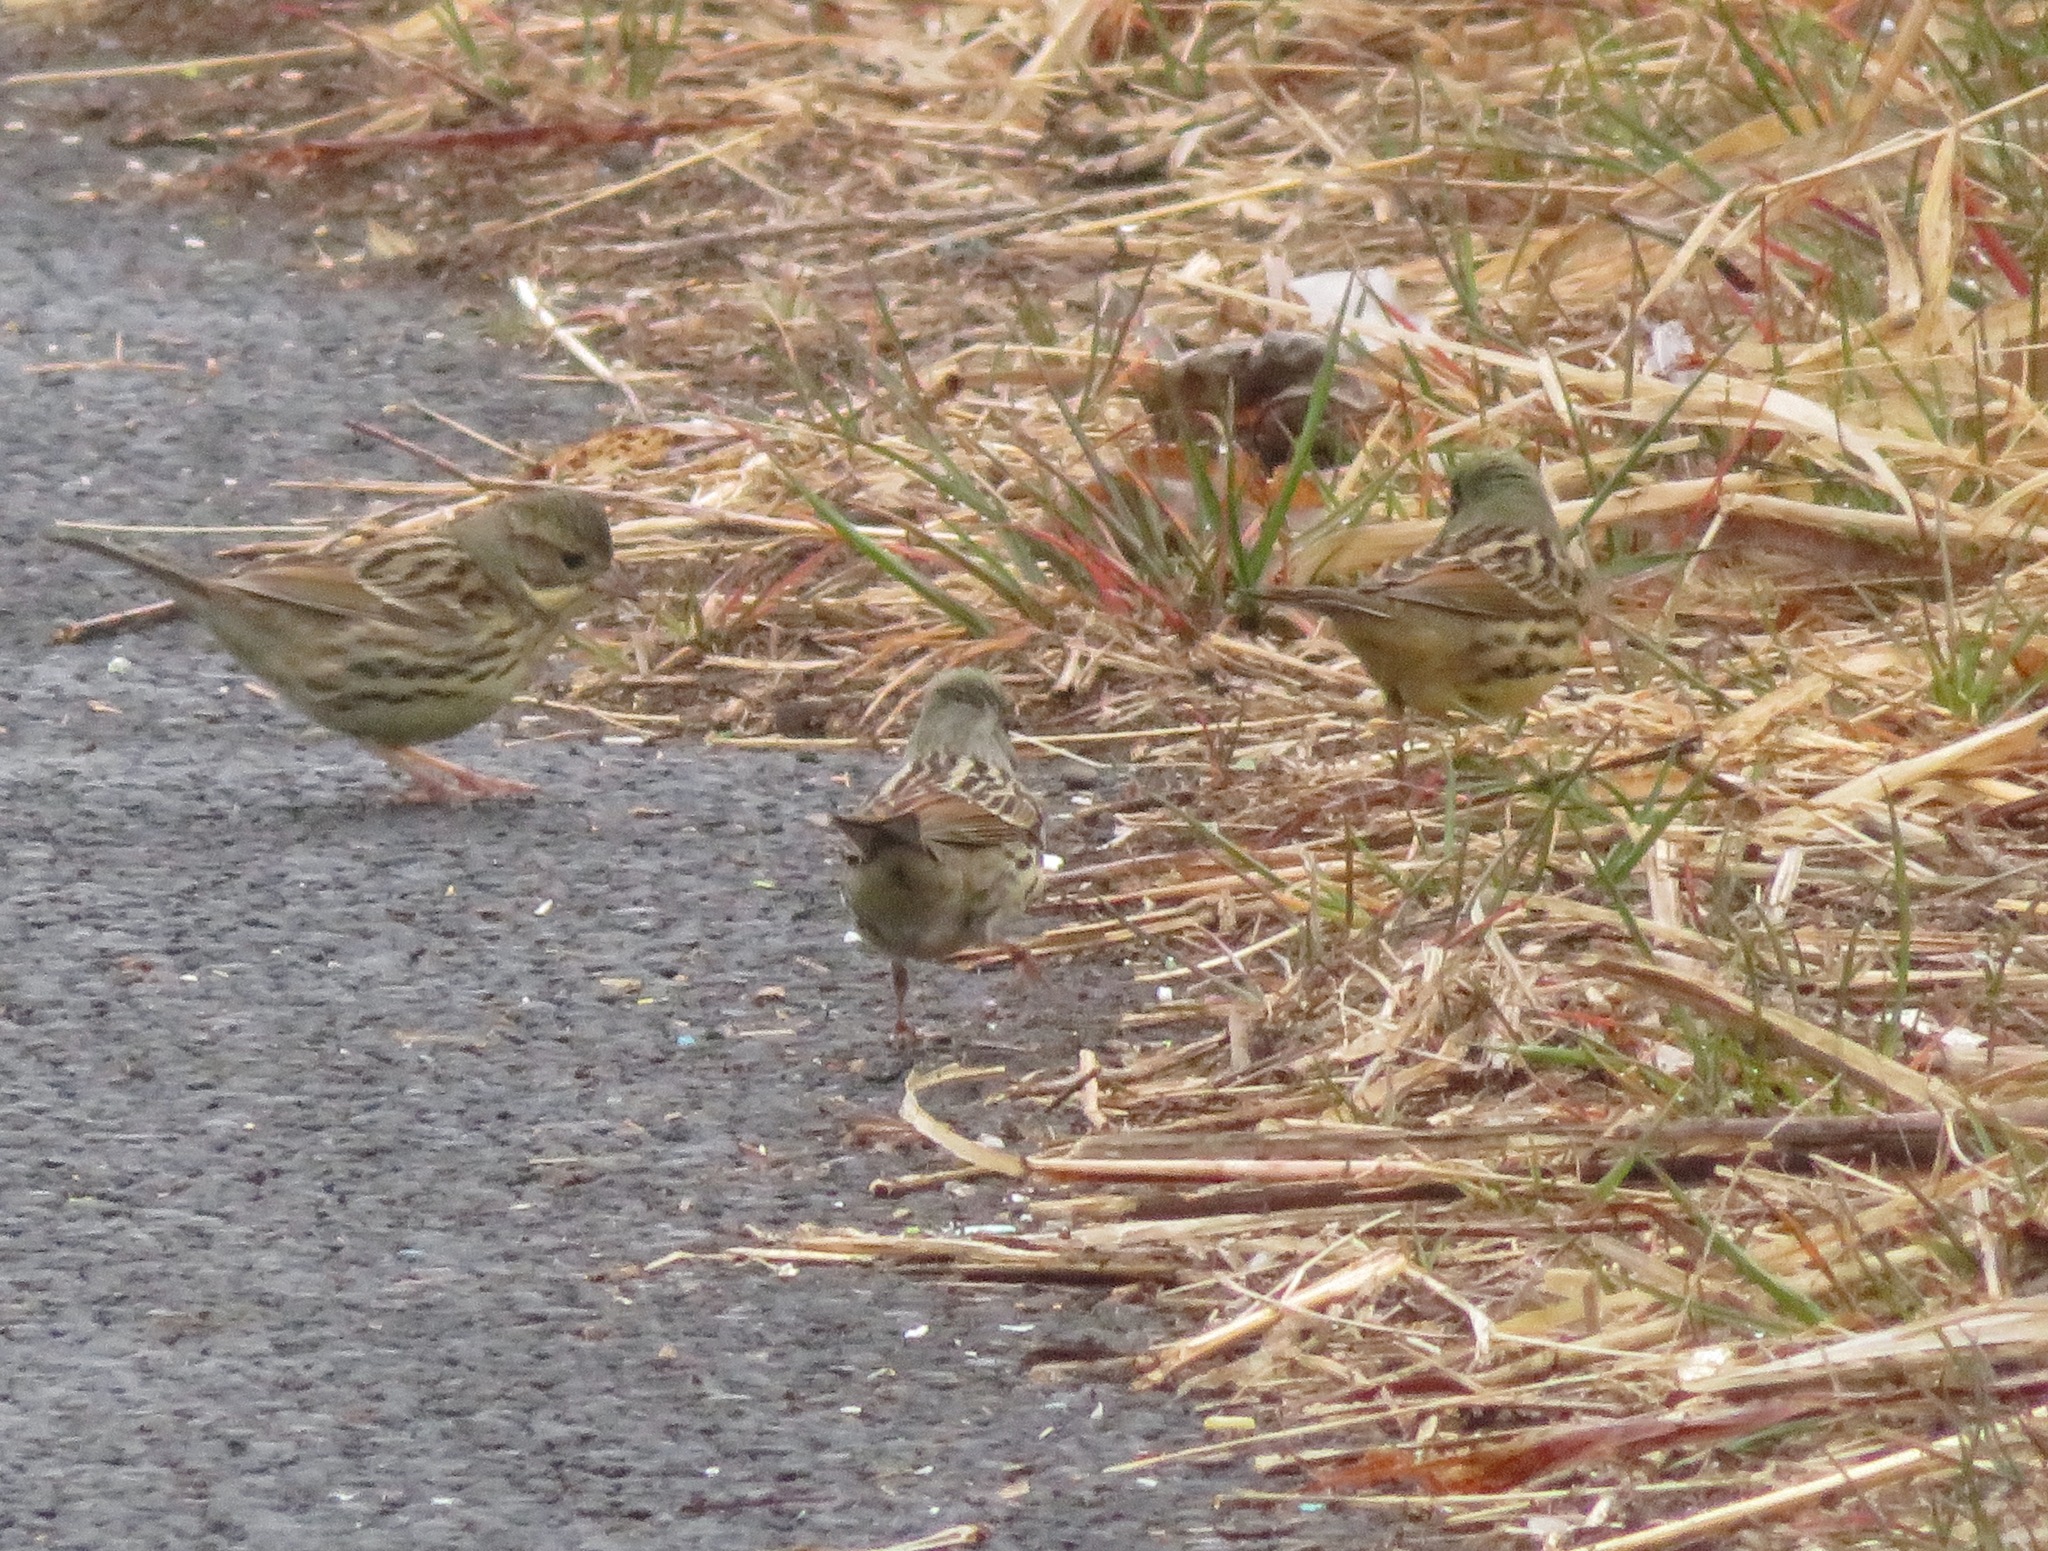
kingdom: Animalia
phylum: Chordata
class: Aves
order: Passeriformes
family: Emberizidae
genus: Emberiza
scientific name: Emberiza personata
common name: Masked bunting
